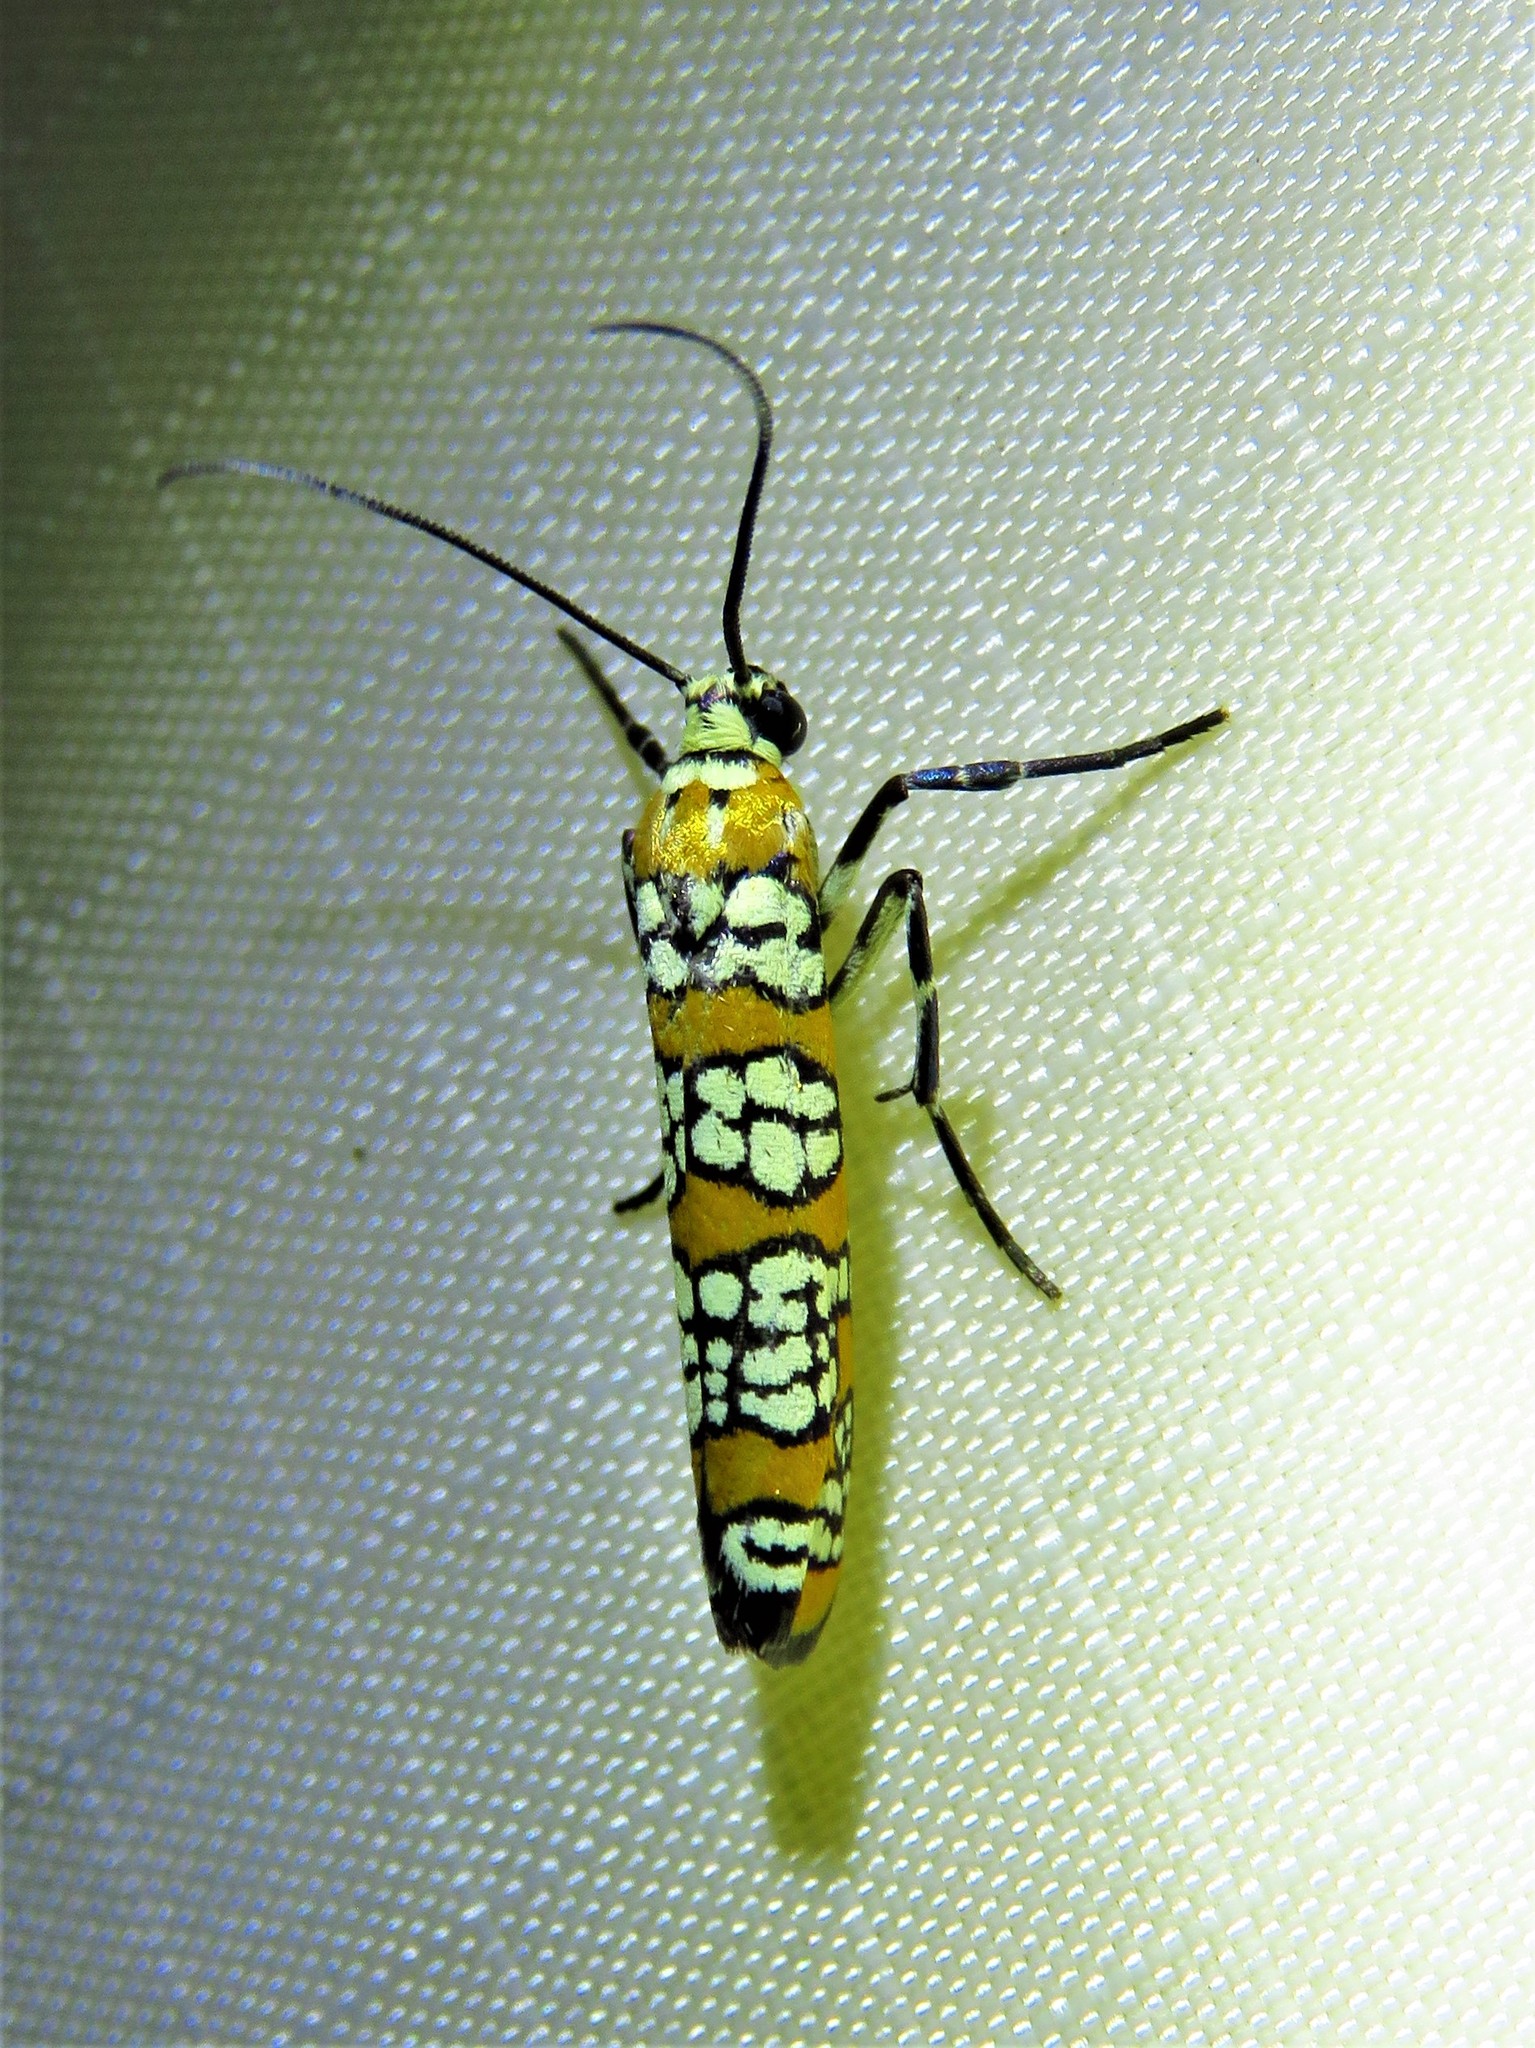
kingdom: Animalia
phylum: Arthropoda
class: Insecta
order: Lepidoptera
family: Attevidae
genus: Atteva
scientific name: Atteva punctella
